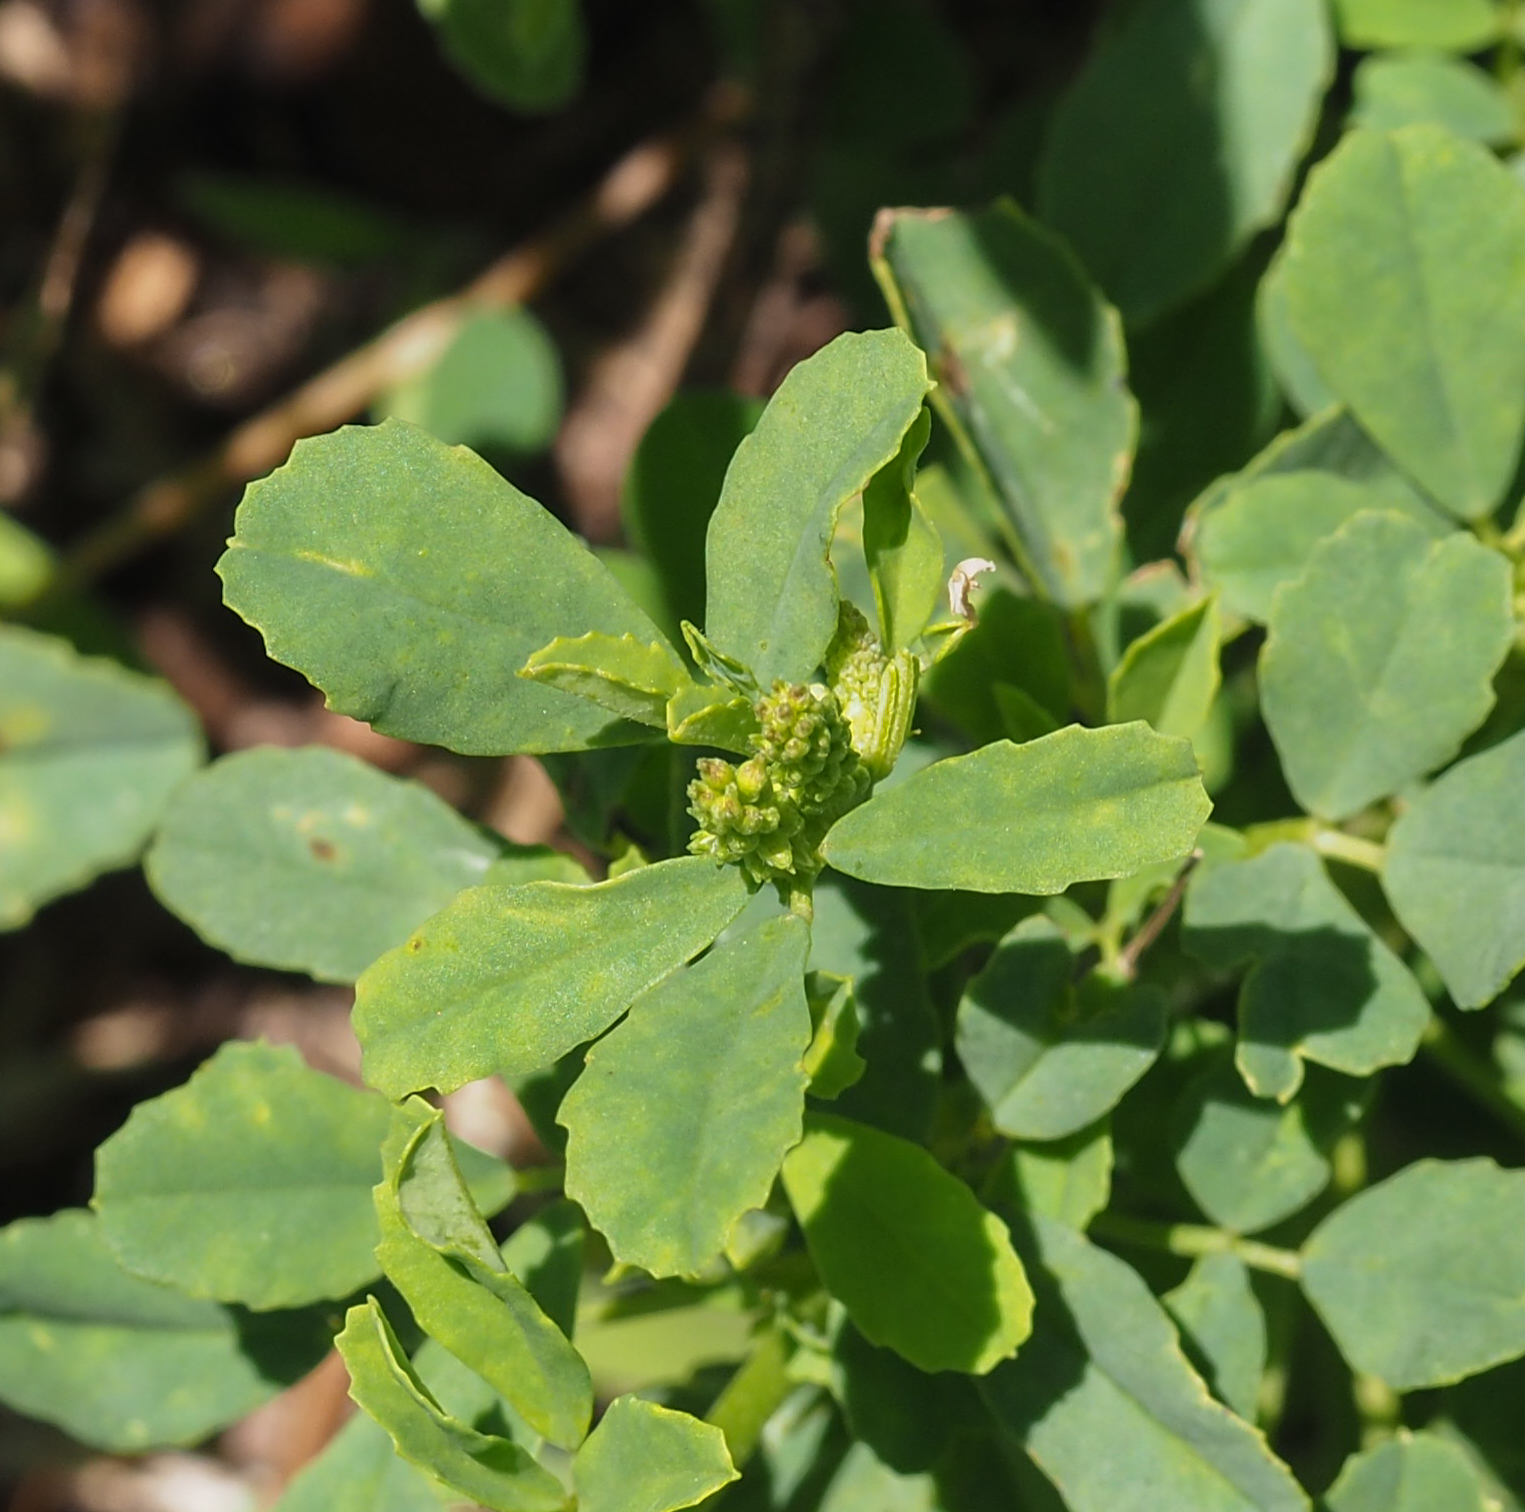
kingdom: Plantae
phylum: Tracheophyta
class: Magnoliopsida
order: Fabales
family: Fabaceae
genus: Melilotus
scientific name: Melilotus albus
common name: White melilot
